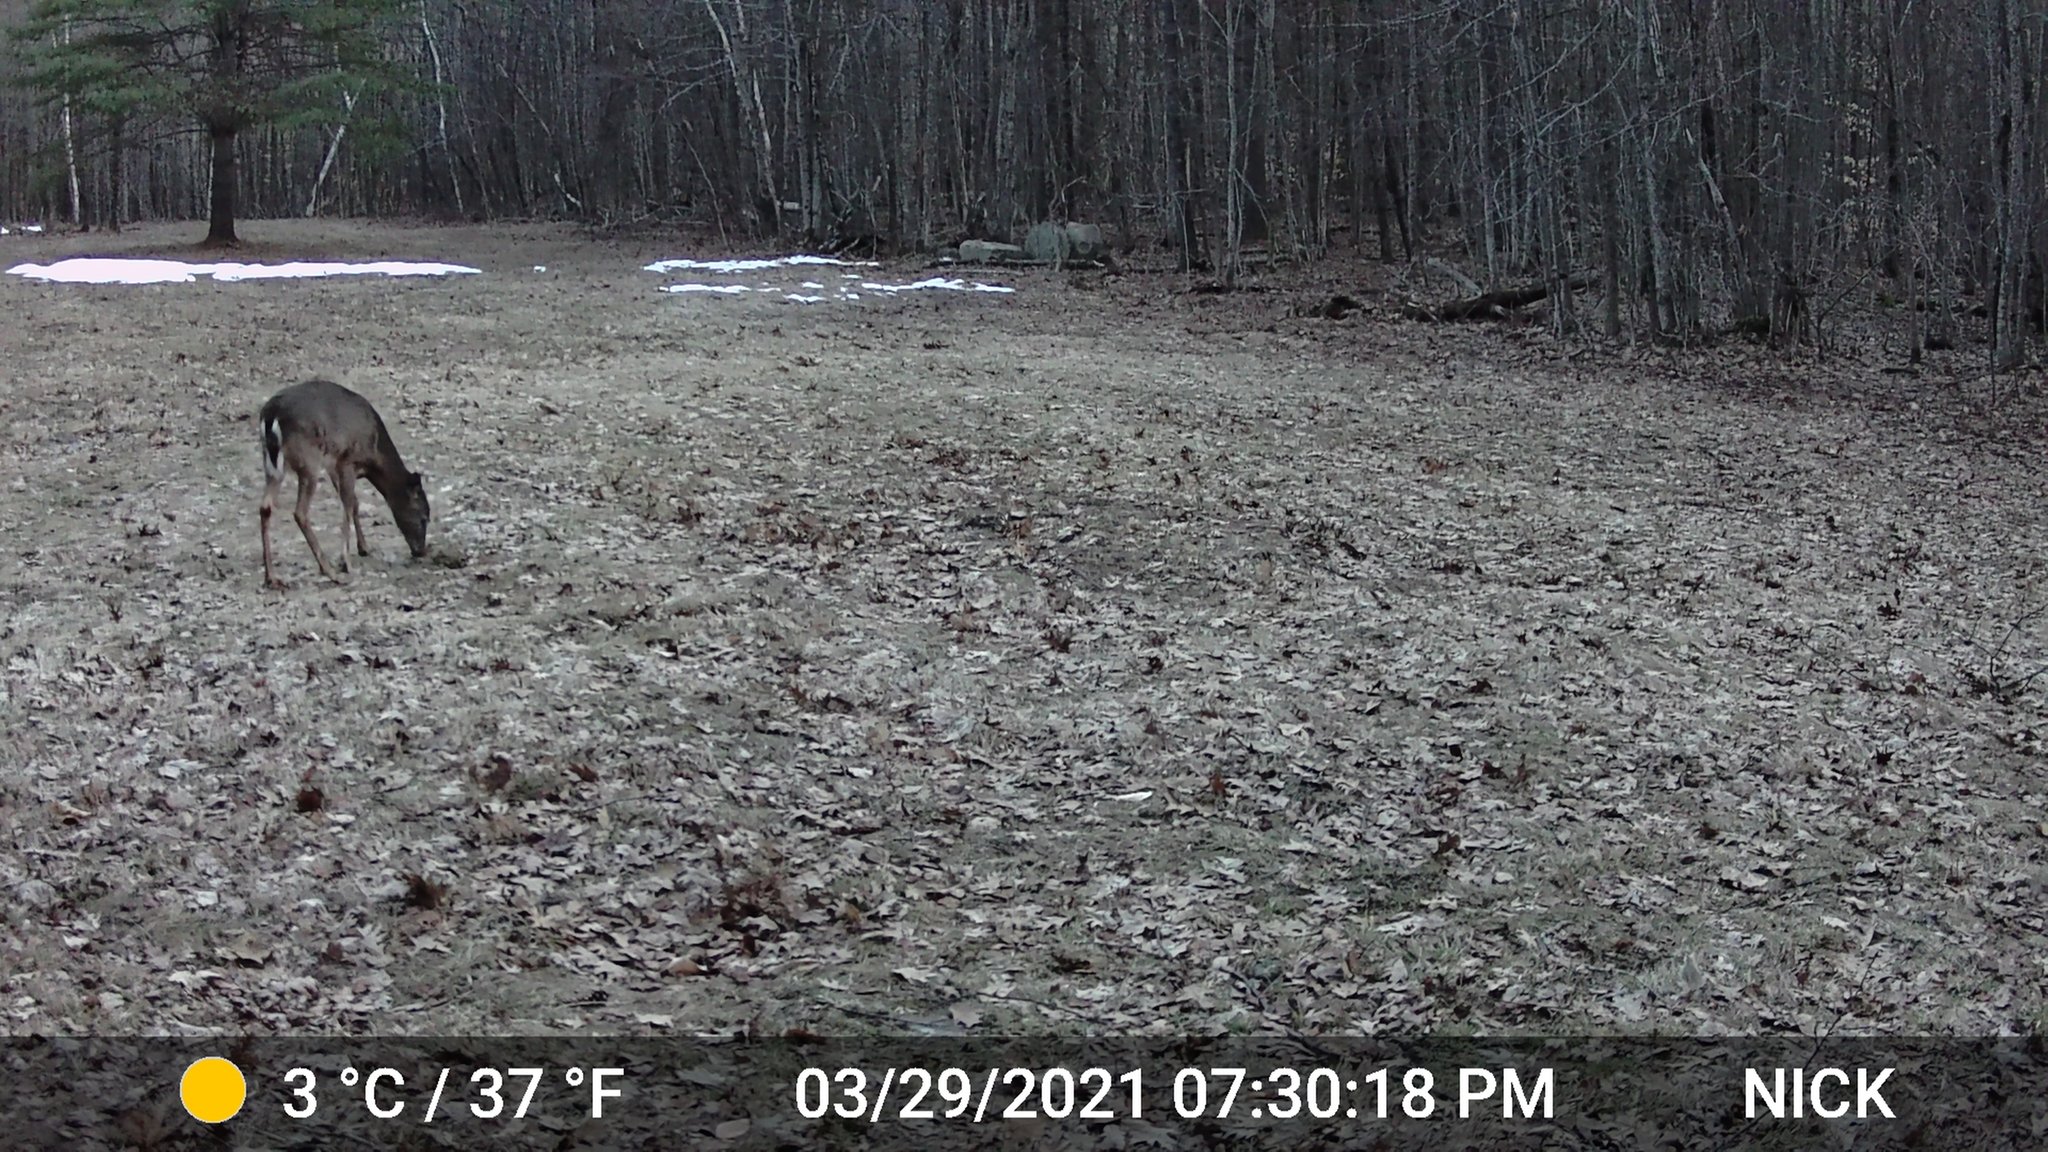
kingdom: Animalia
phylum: Chordata
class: Mammalia
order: Artiodactyla
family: Cervidae
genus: Odocoileus
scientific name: Odocoileus virginianus
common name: White-tailed deer
